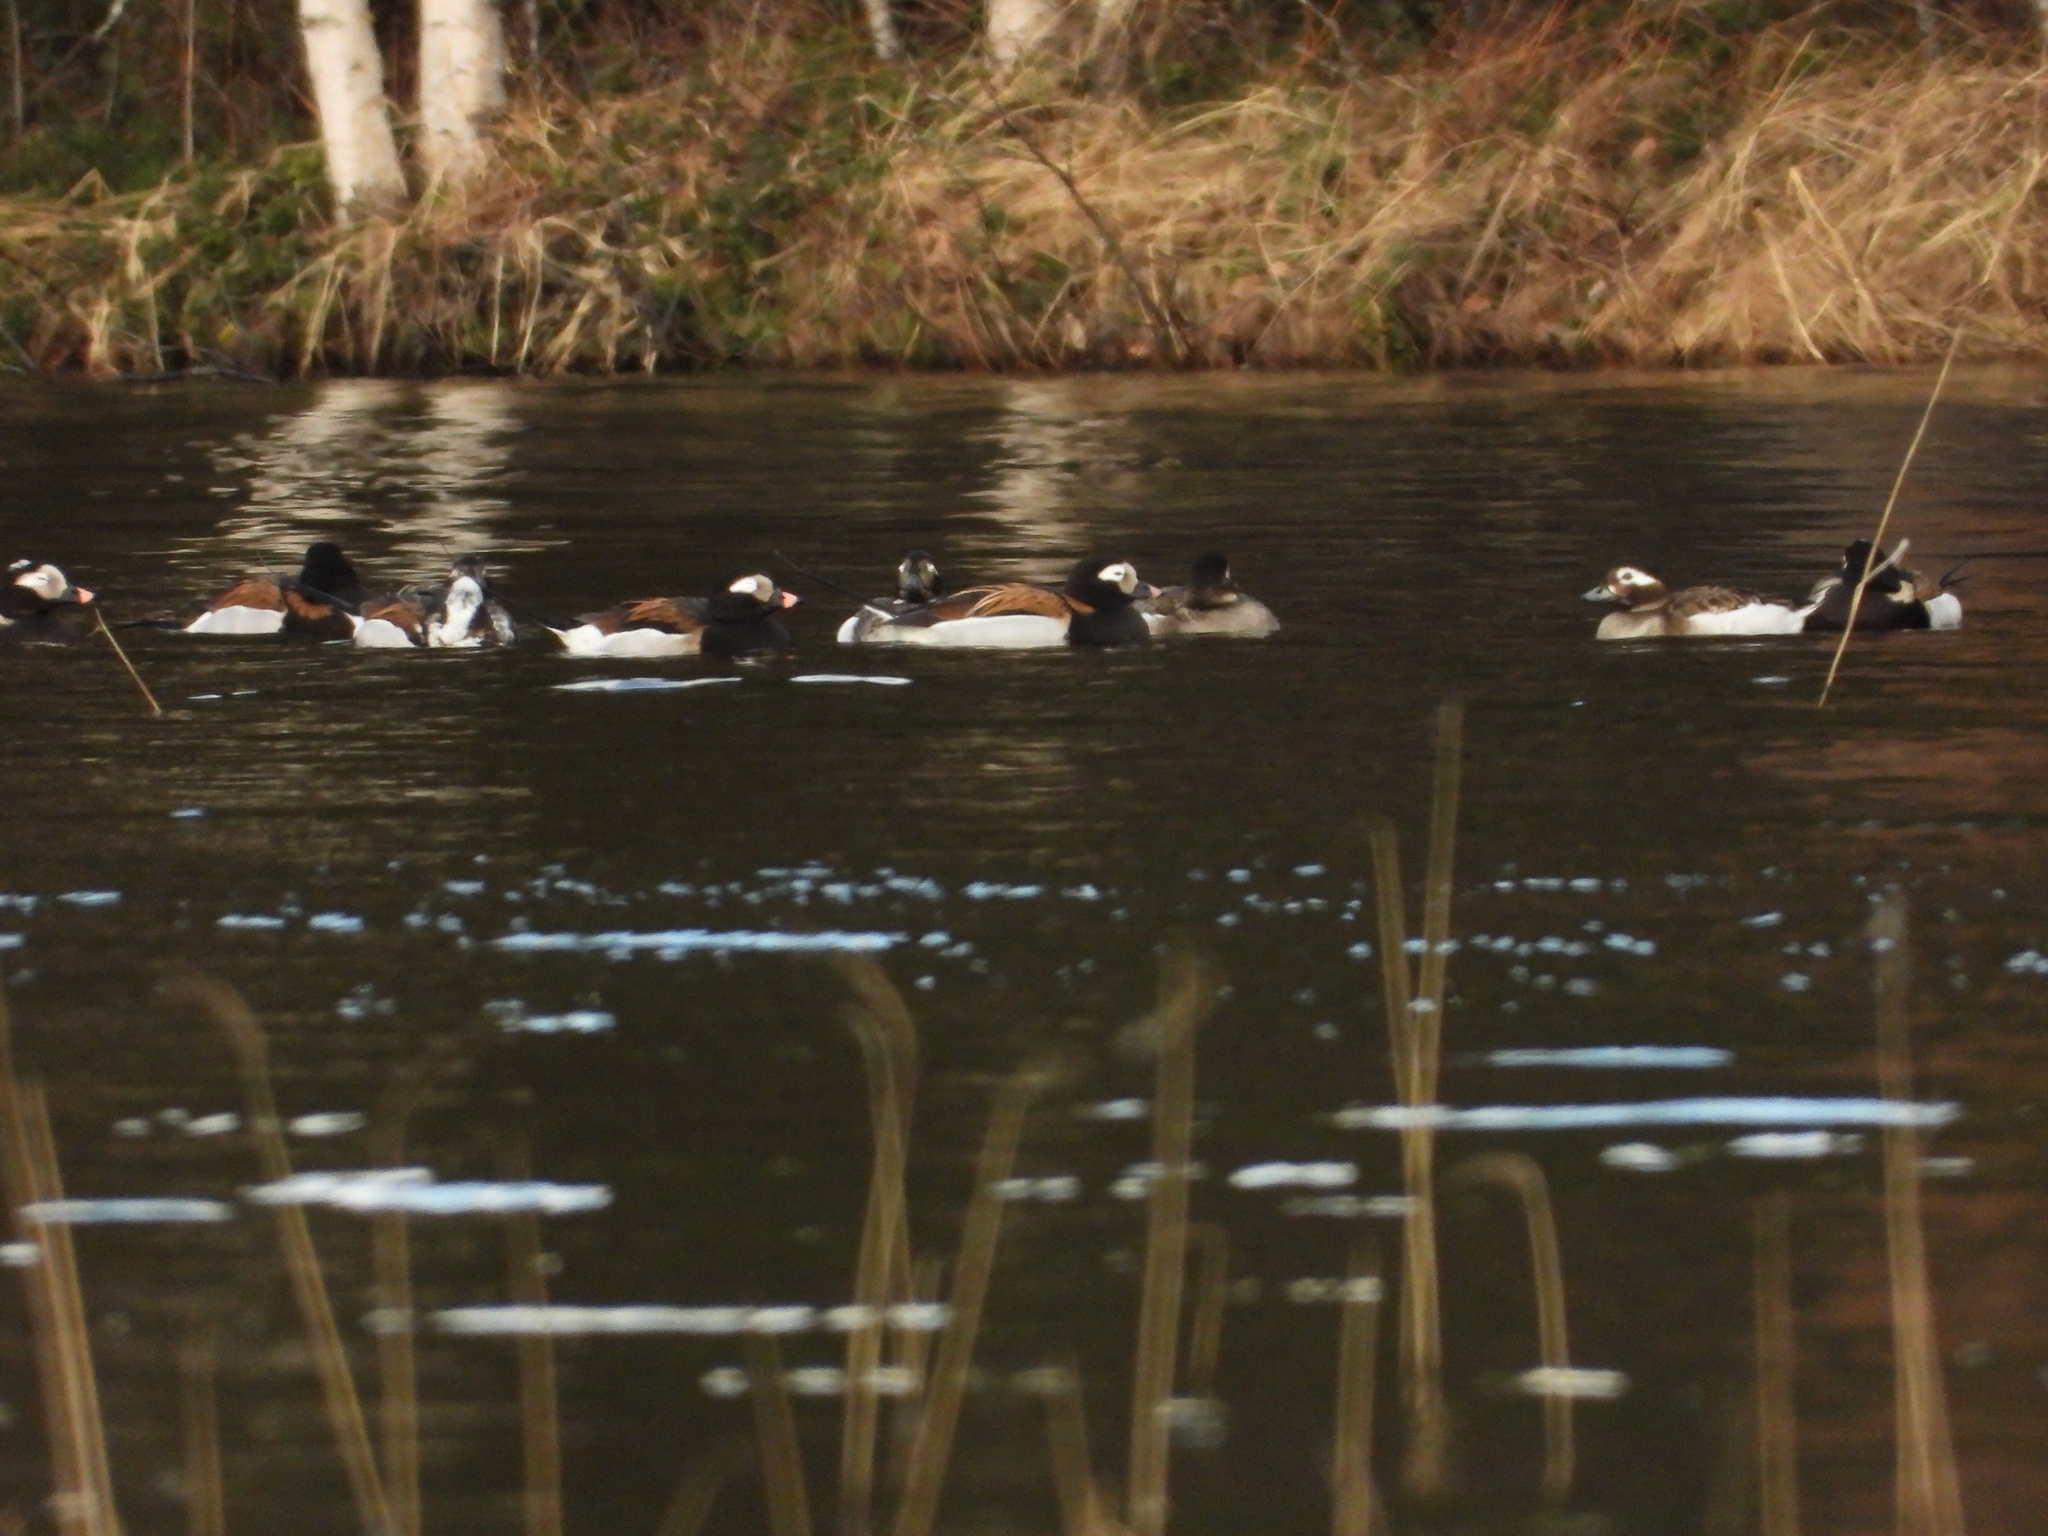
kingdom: Animalia
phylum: Chordata
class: Aves
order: Anseriformes
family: Anatidae
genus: Clangula
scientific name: Clangula hyemalis
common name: Long-tailed duck
